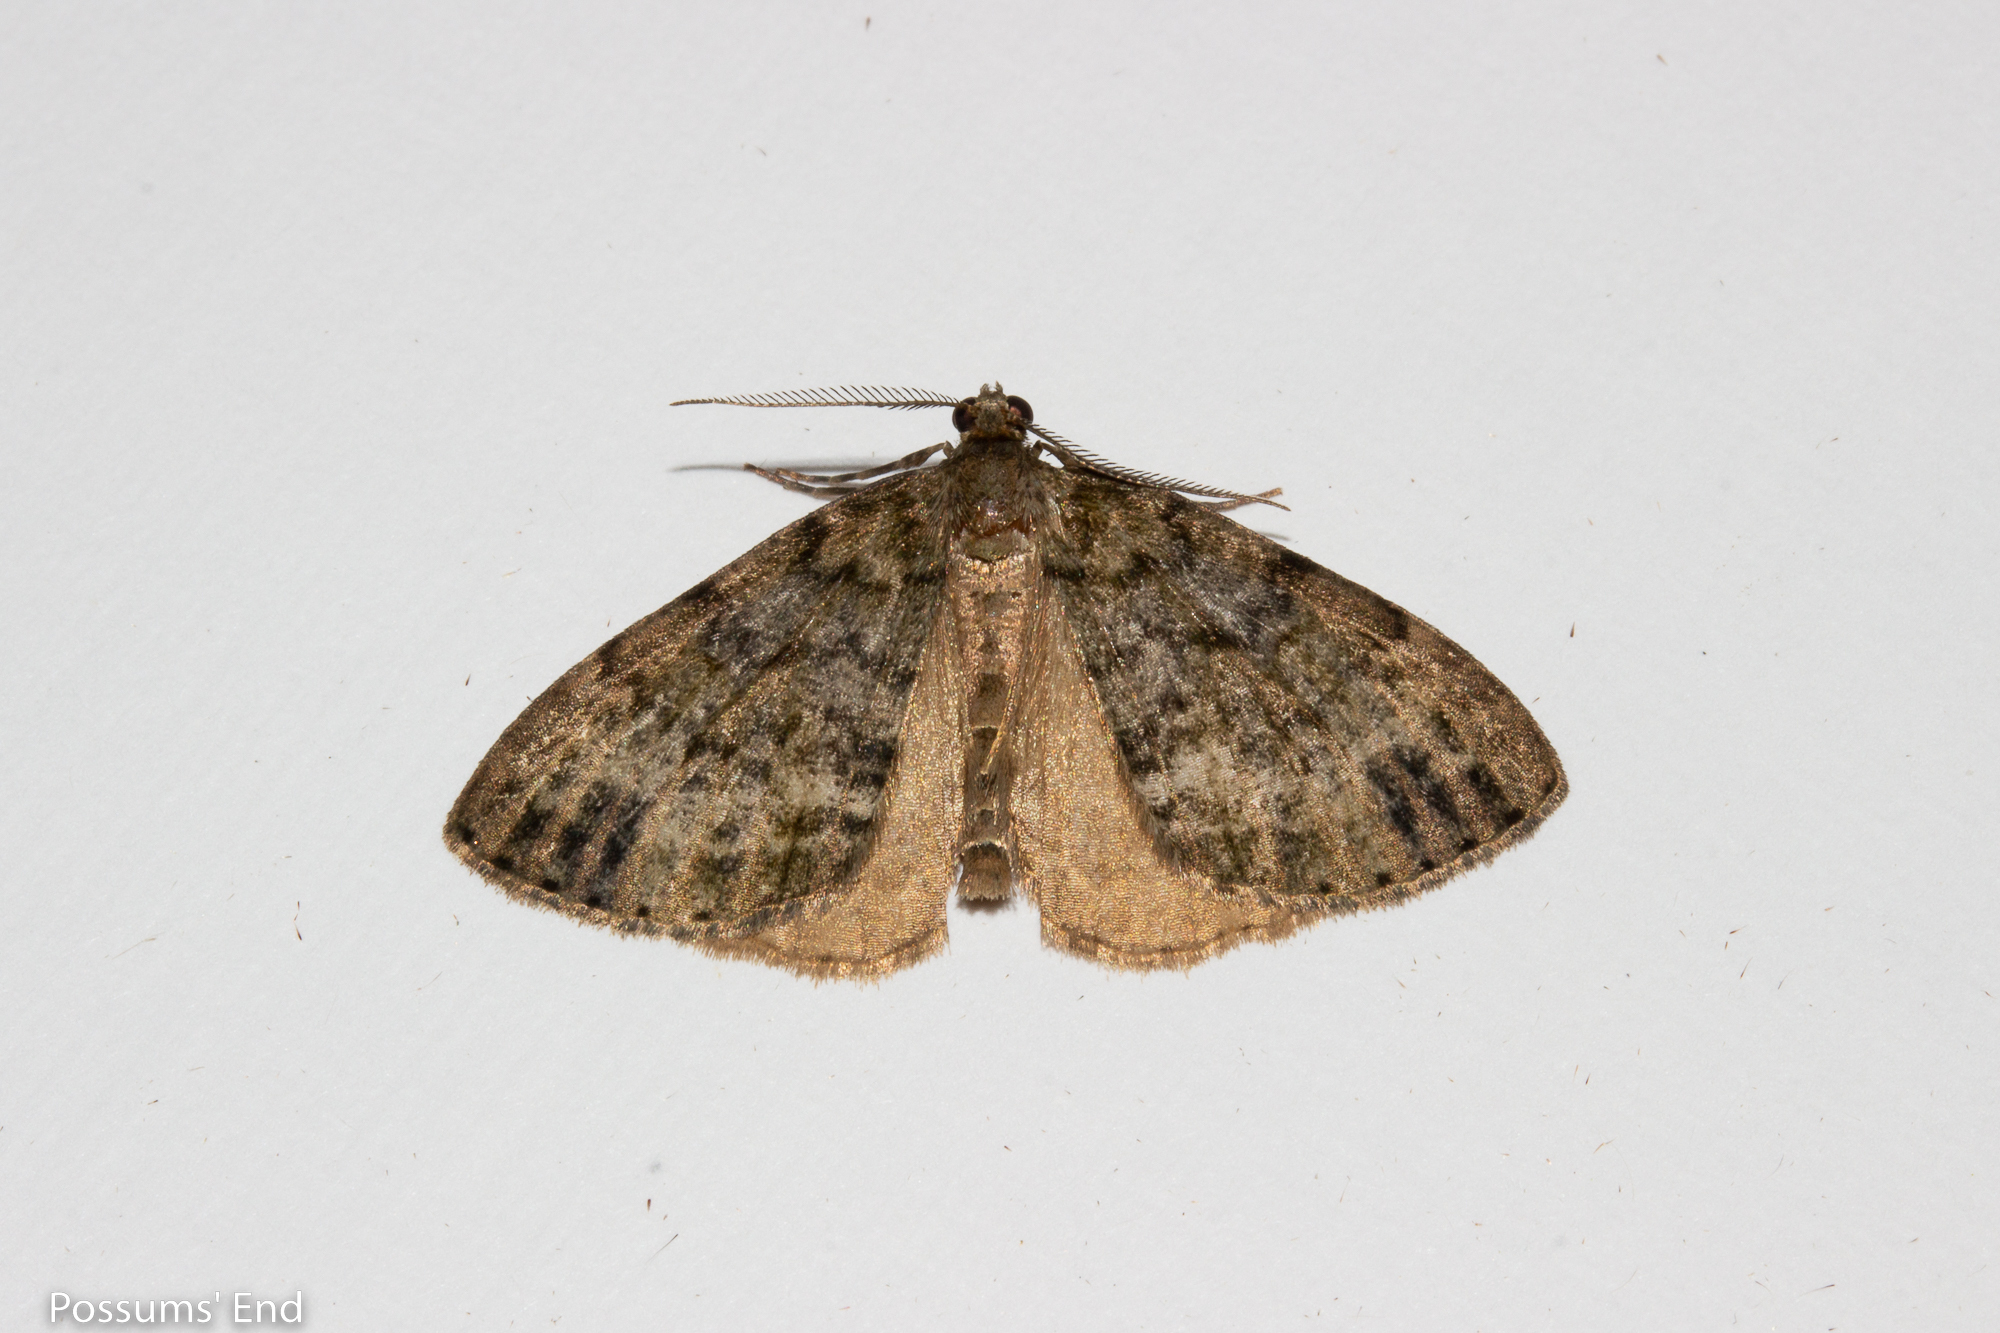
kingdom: Animalia
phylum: Arthropoda
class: Insecta
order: Lepidoptera
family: Geometridae
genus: Pseudocoremia
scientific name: Pseudocoremia indistincta
